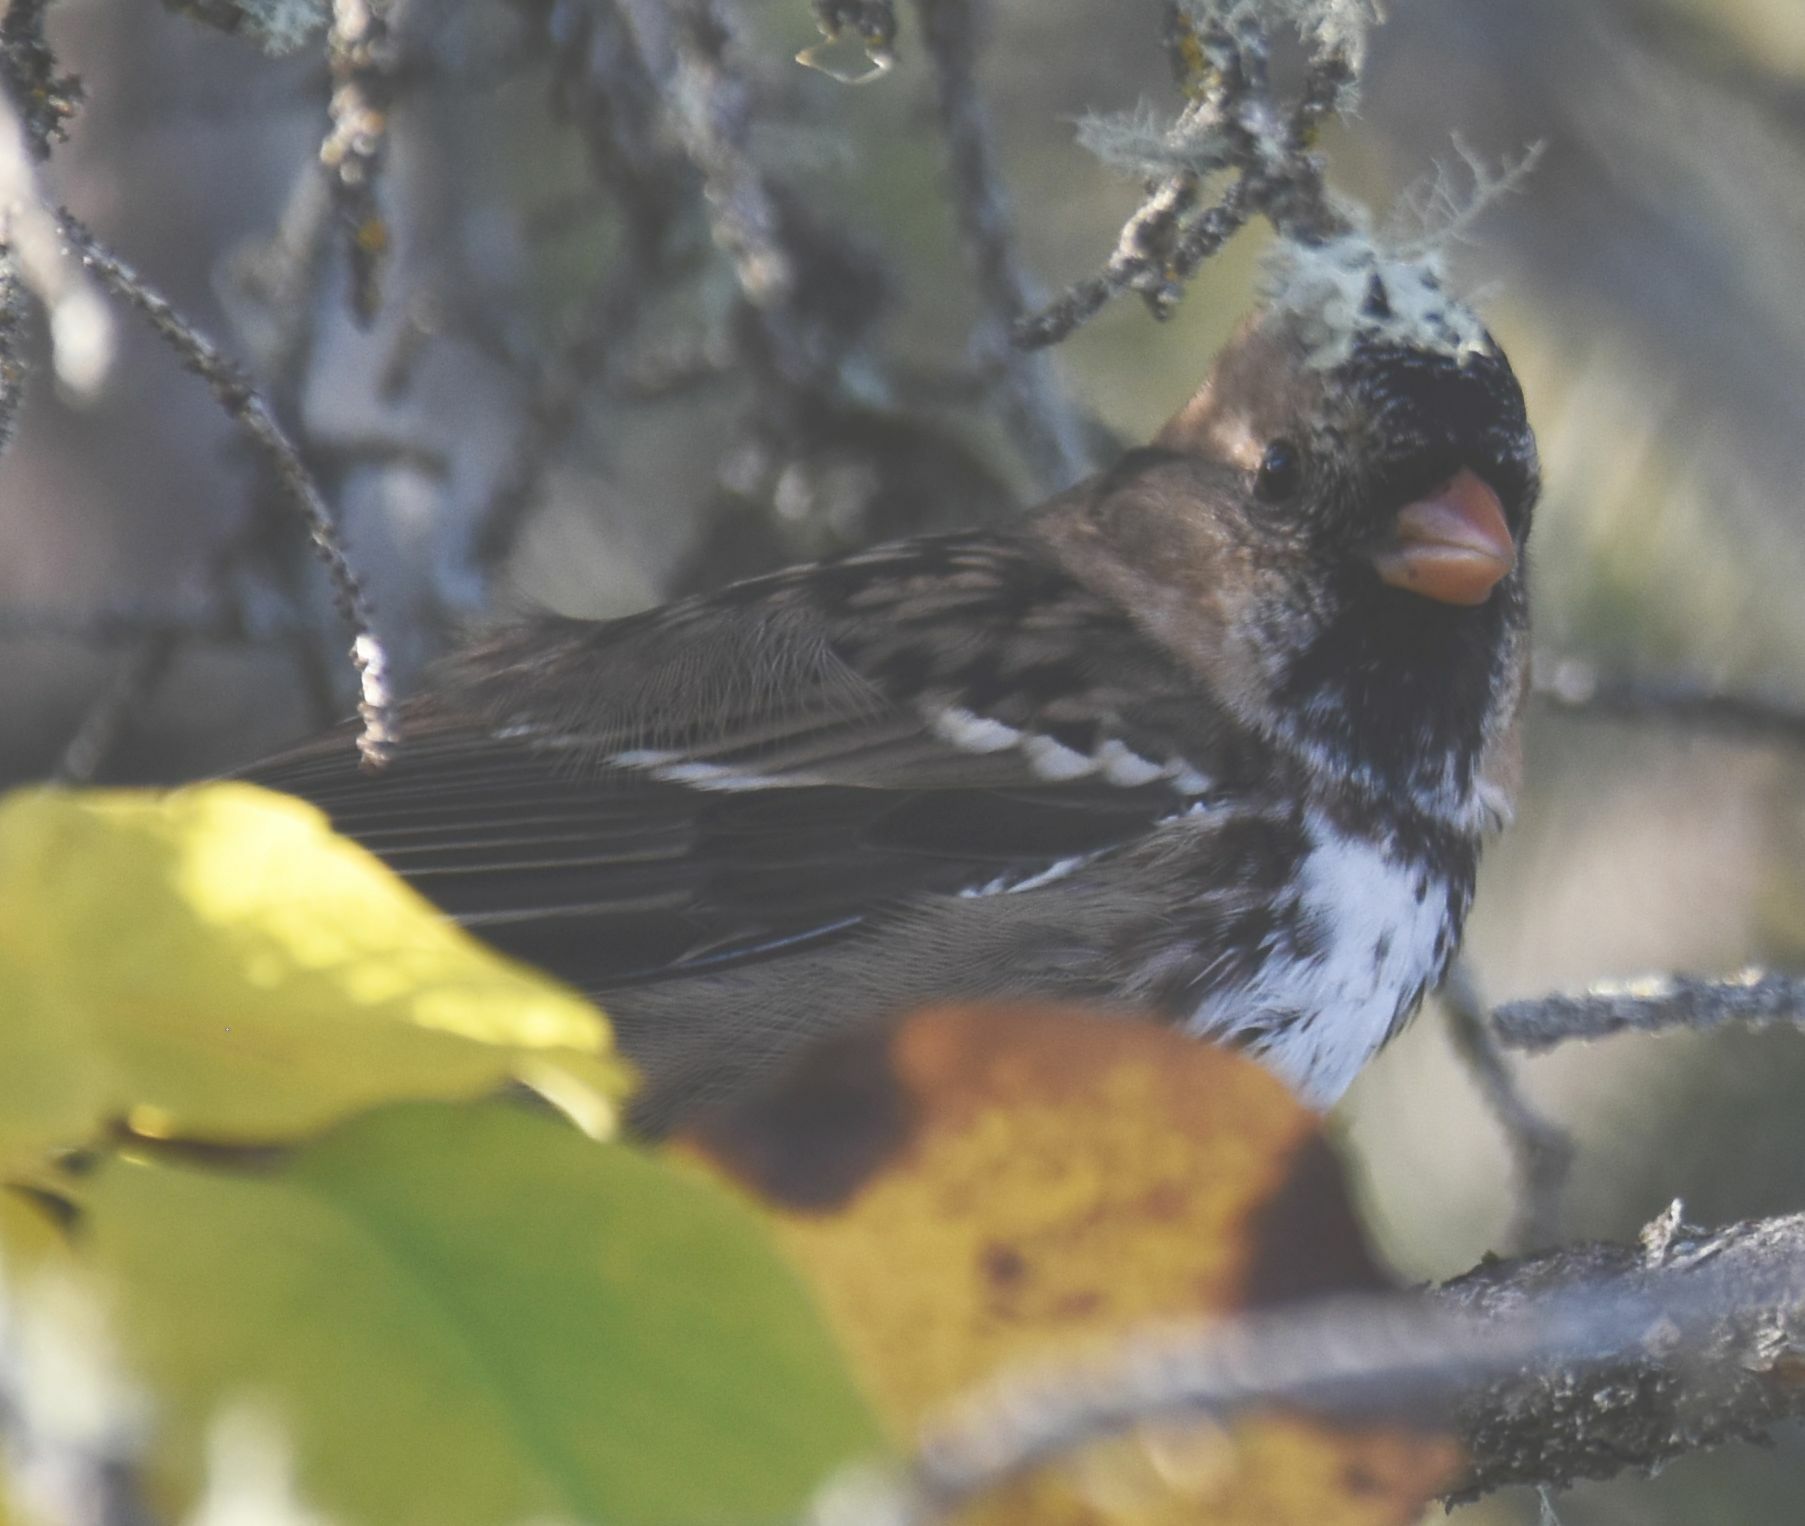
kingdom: Animalia
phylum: Chordata
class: Aves
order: Passeriformes
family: Passerellidae
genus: Zonotrichia
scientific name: Zonotrichia querula
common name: Harris's sparrow
